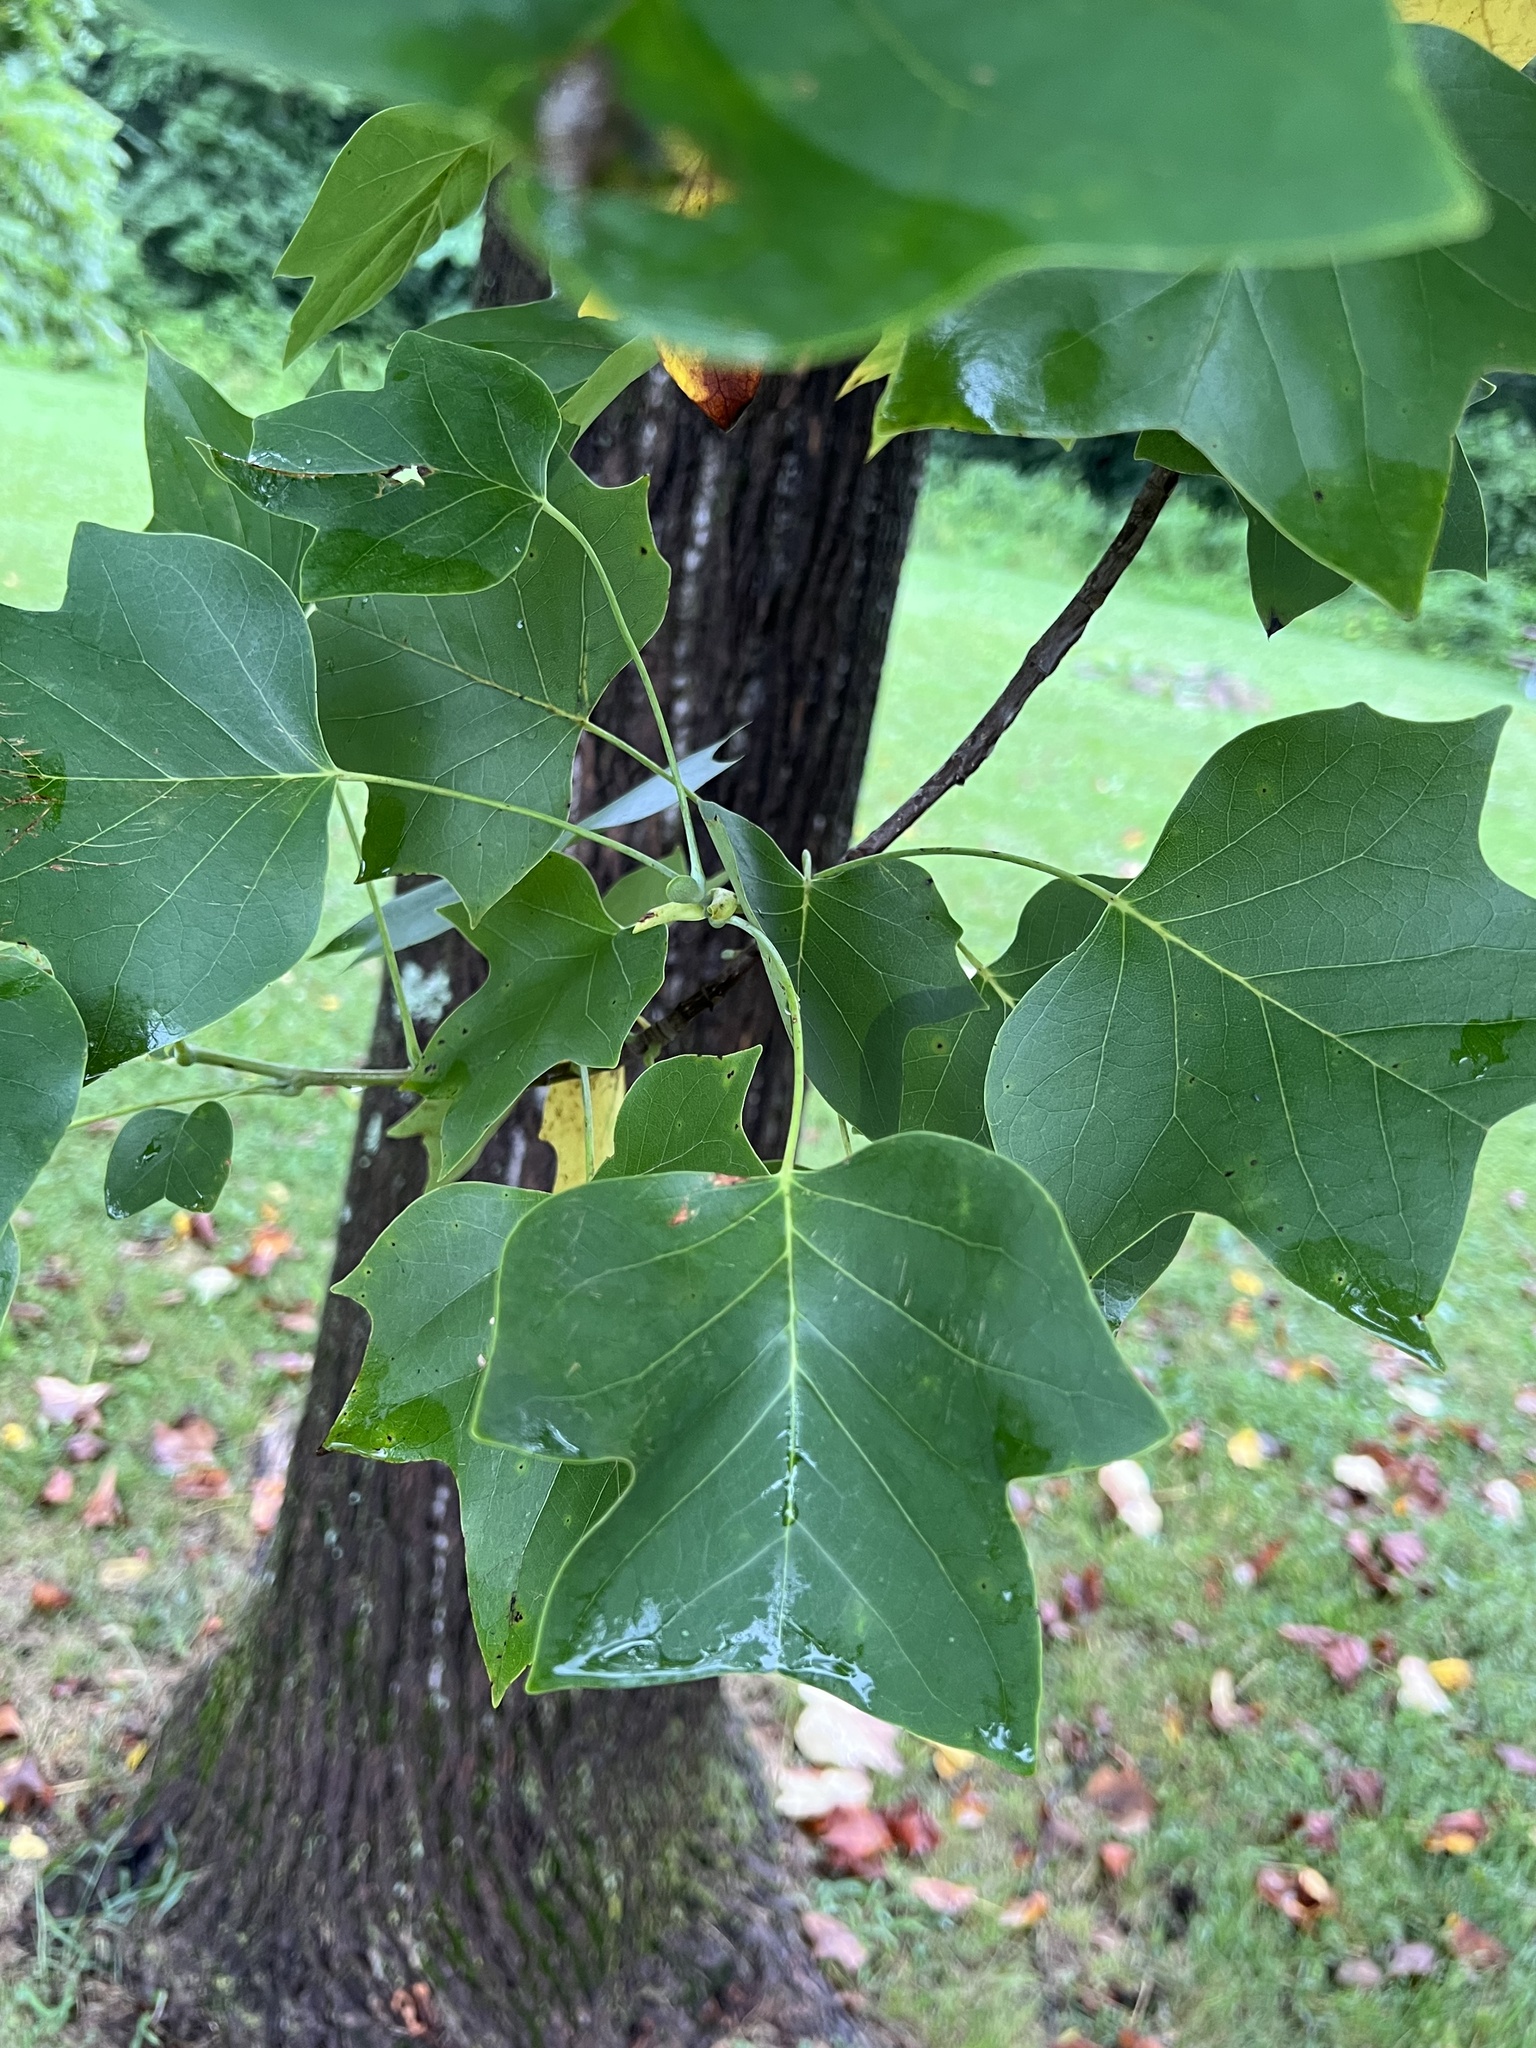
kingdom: Animalia
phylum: Arthropoda
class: Insecta
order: Lepidoptera
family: Gracillariidae
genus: Phyllocnistis
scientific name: Phyllocnistis liriodendronella
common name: Tulip tree leaf miner
